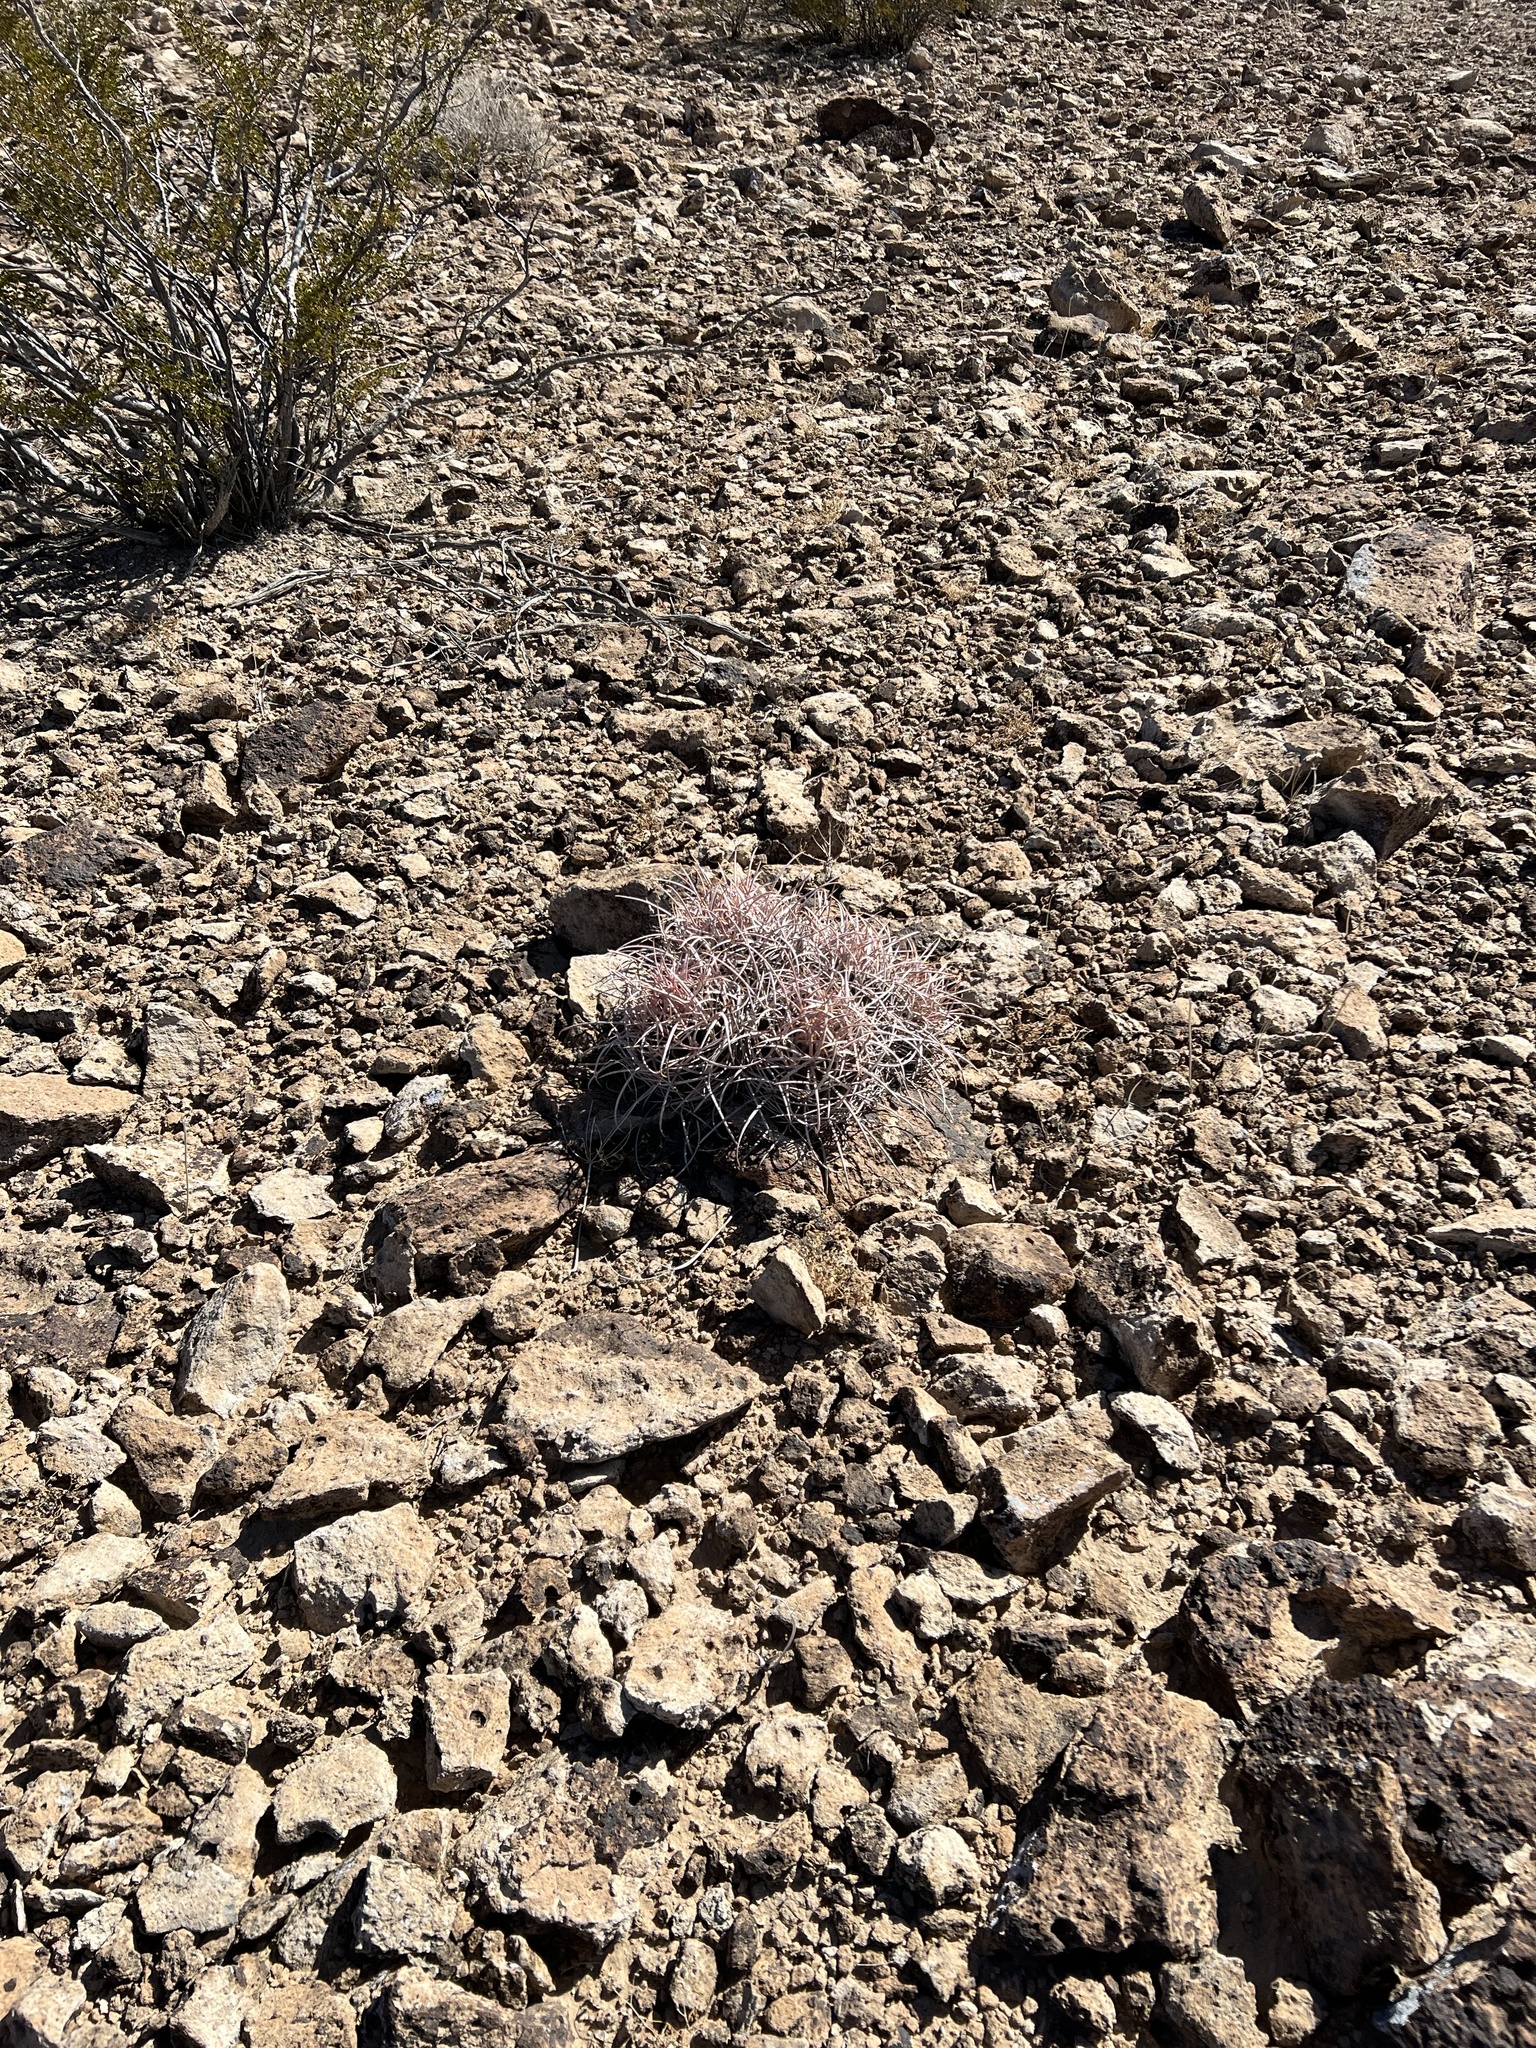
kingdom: Plantae
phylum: Tracheophyta
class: Magnoliopsida
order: Caryophyllales
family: Cactaceae
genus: Echinocactus
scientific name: Echinocactus polycephalus
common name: Cottontop cactus
